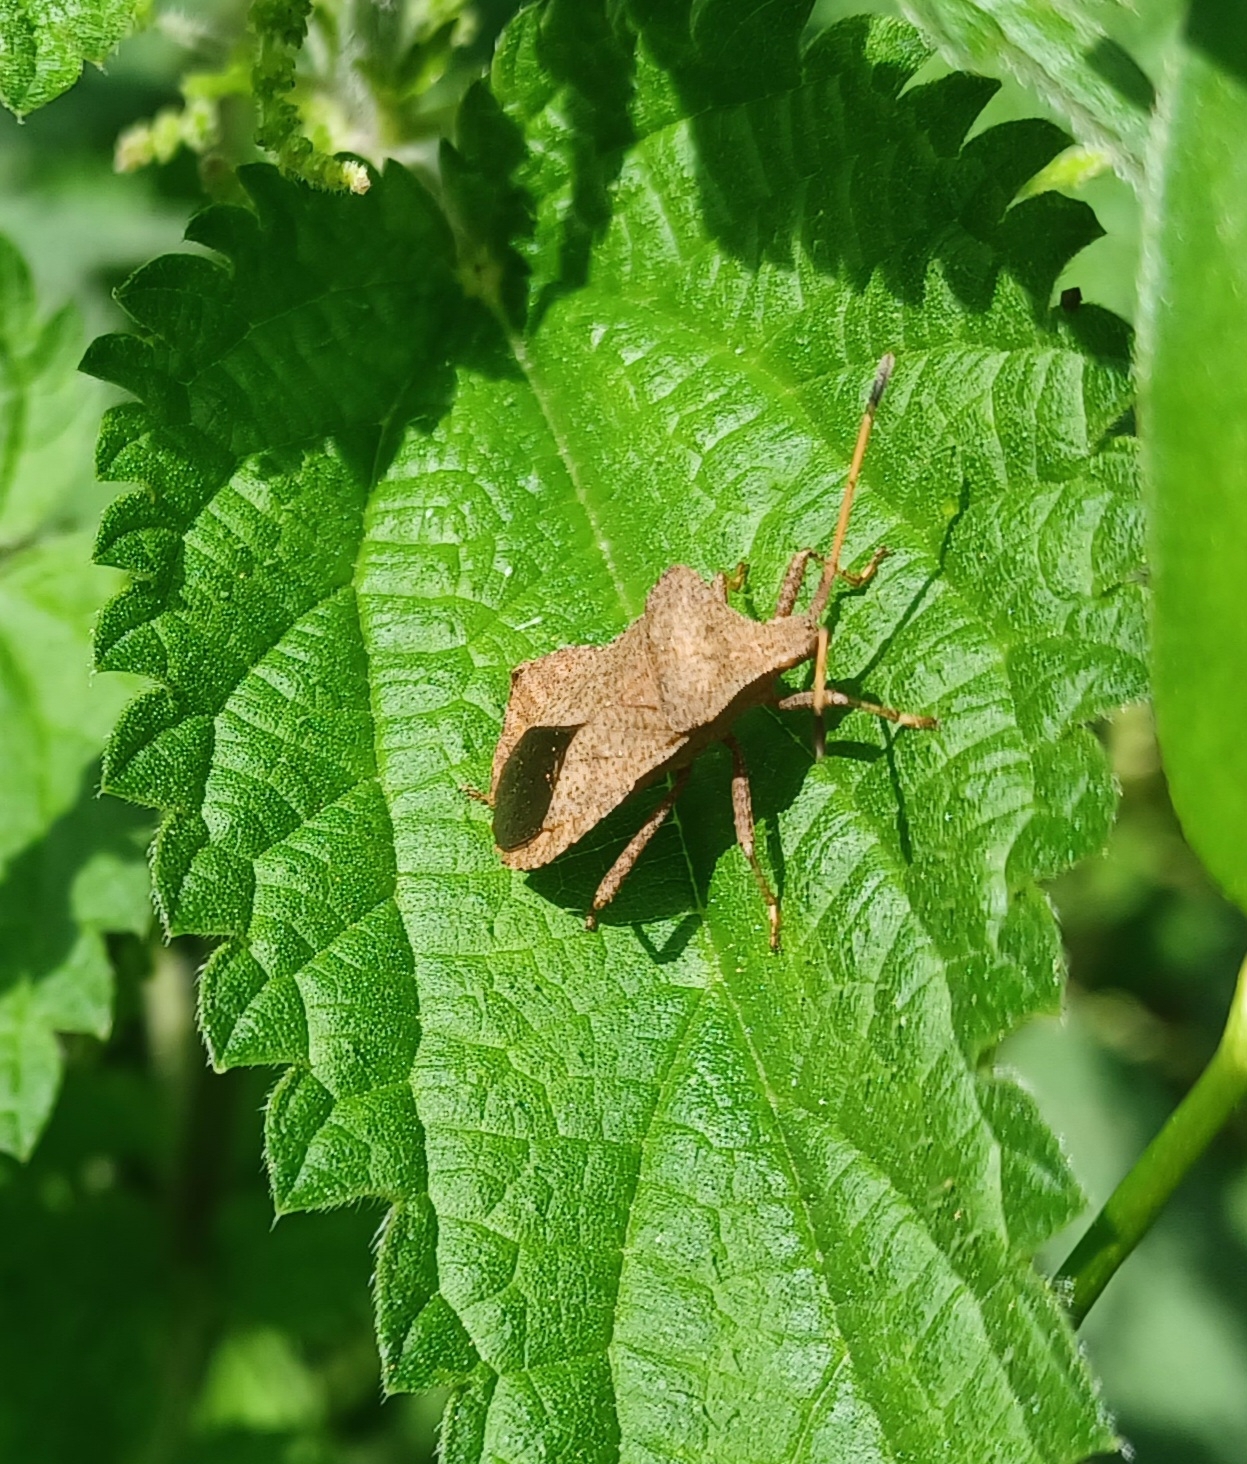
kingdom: Animalia
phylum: Arthropoda
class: Insecta
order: Hemiptera
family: Coreidae
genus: Coreus
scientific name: Coreus marginatus
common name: Dock bug
